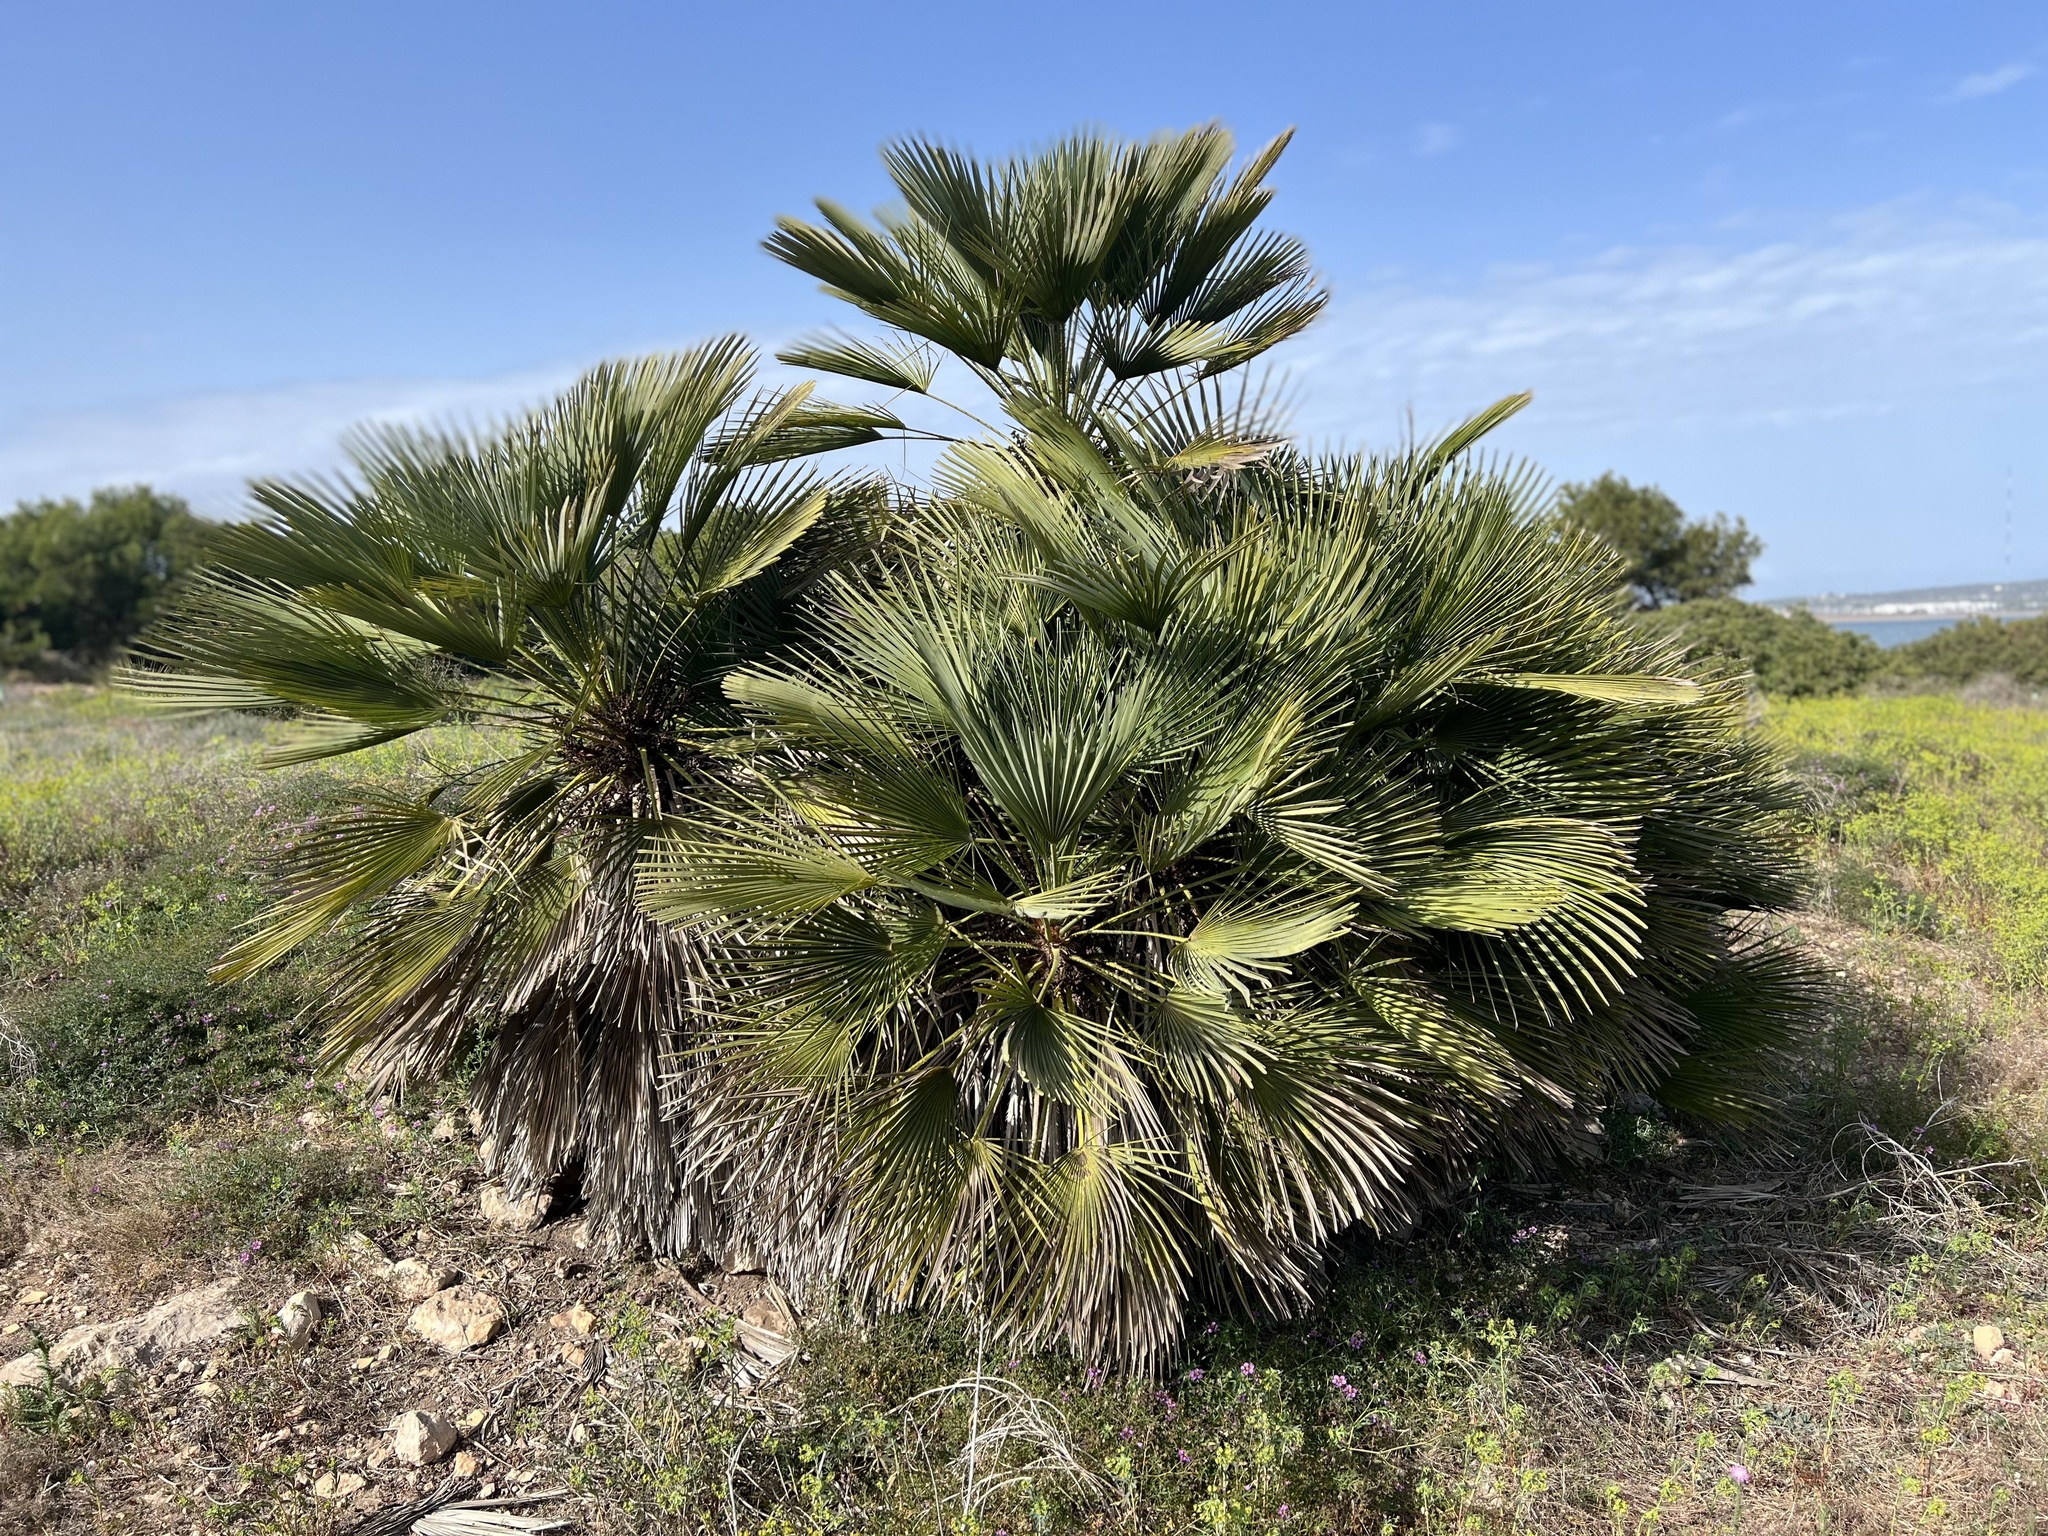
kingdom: Plantae
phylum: Tracheophyta
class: Liliopsida
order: Arecales
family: Arecaceae
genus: Chamaerops
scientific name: Chamaerops humilis
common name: Dwarf fan palm
